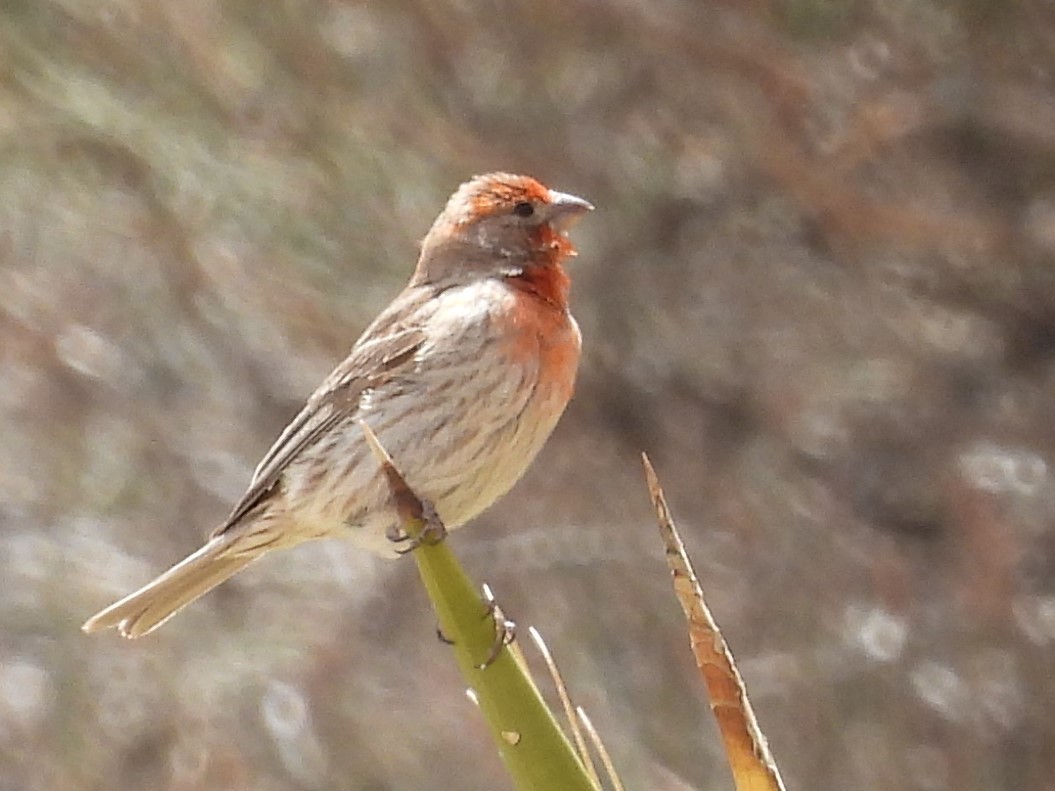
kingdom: Animalia
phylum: Chordata
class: Aves
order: Passeriformes
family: Fringillidae
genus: Haemorhous
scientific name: Haemorhous mexicanus
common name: House finch
